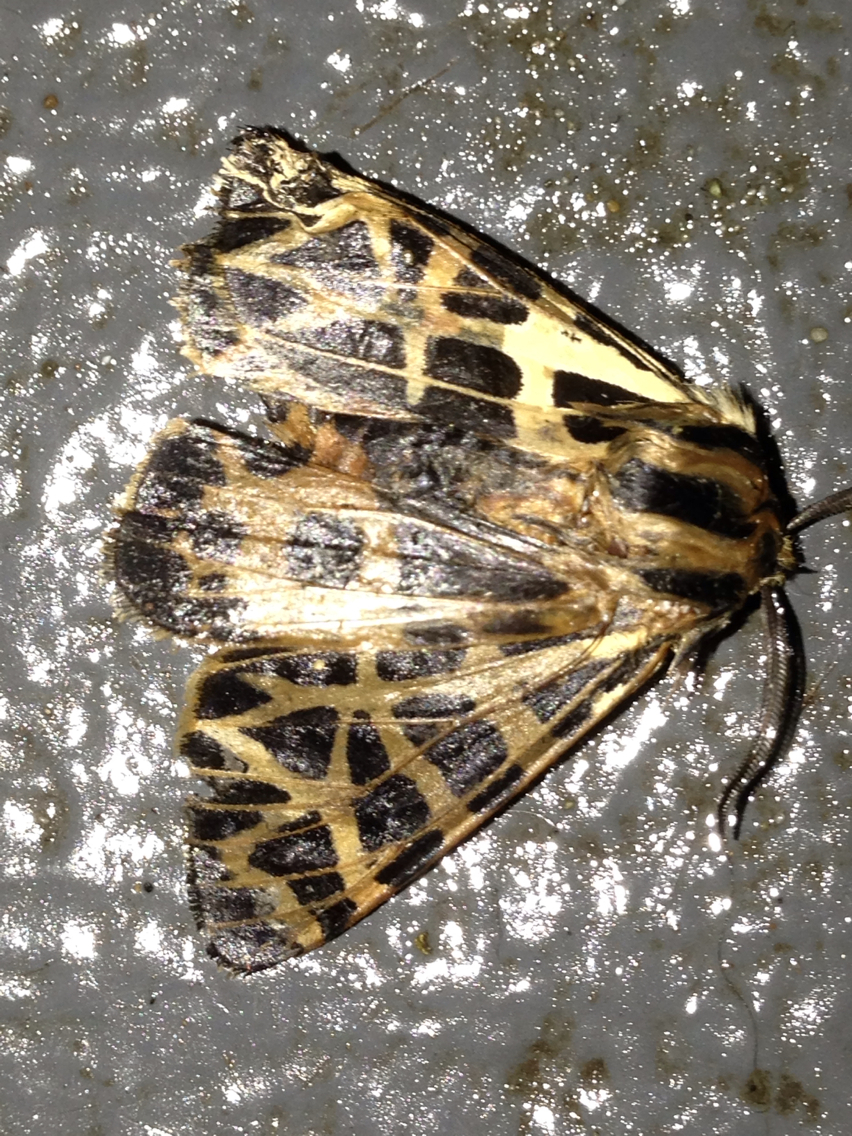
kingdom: Animalia
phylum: Arthropoda
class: Insecta
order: Lepidoptera
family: Erebidae
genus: Apantesis
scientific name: Apantesis
